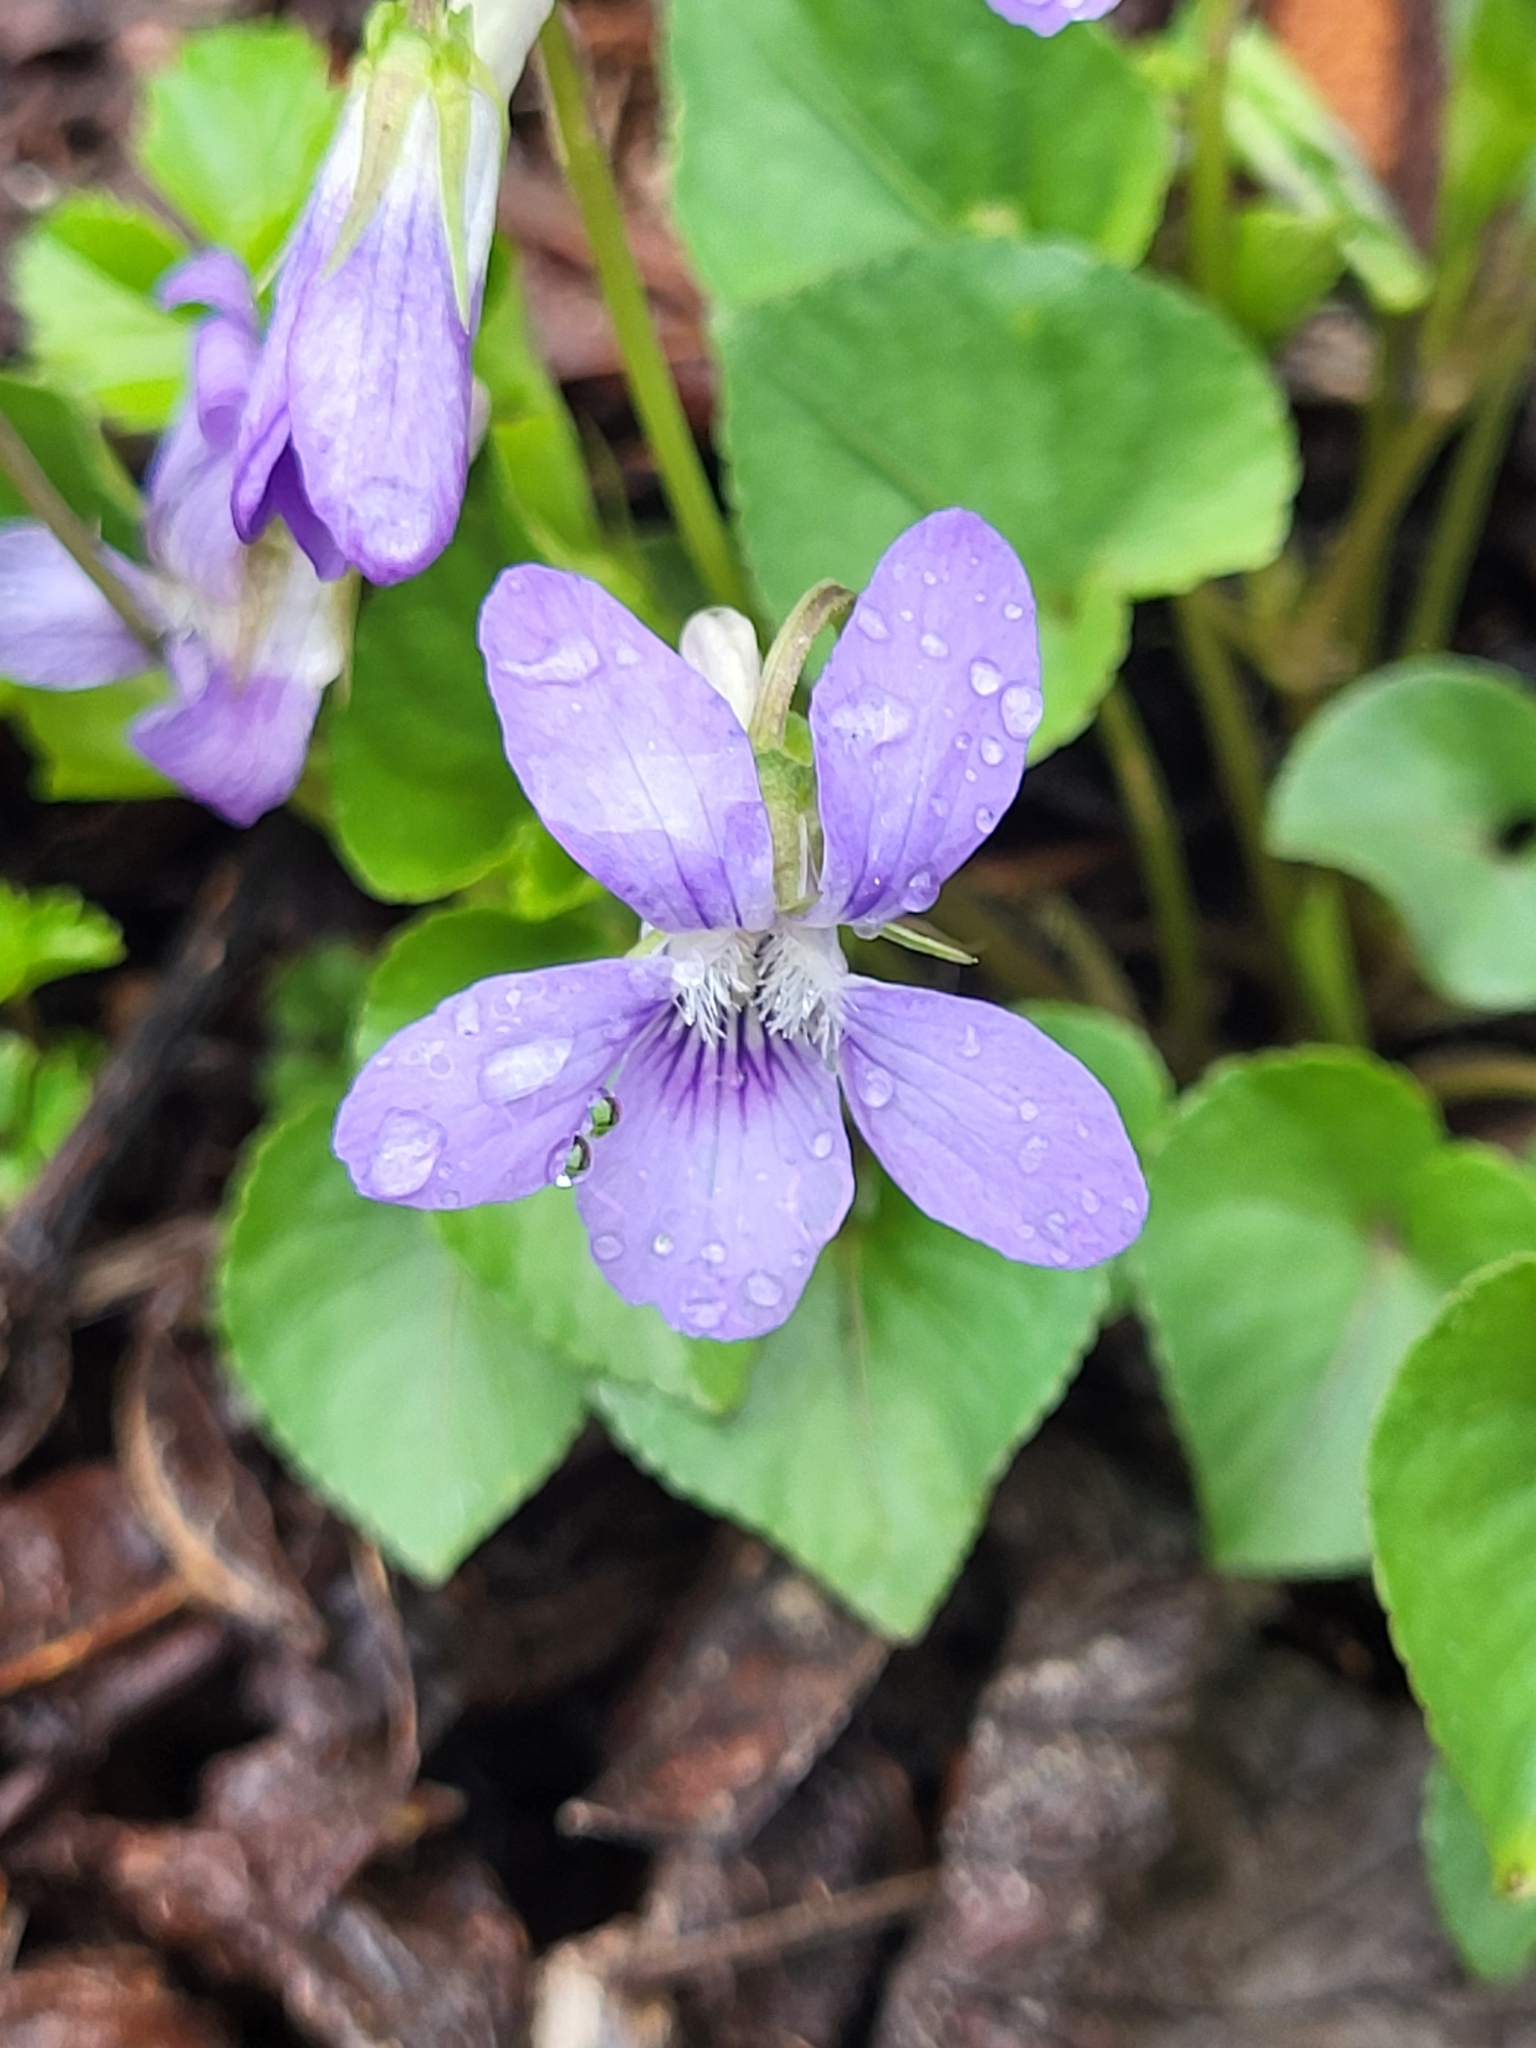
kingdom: Plantae
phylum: Tracheophyta
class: Magnoliopsida
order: Malpighiales
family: Violaceae
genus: Viola
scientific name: Viola riviniana
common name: Common dog-violet
